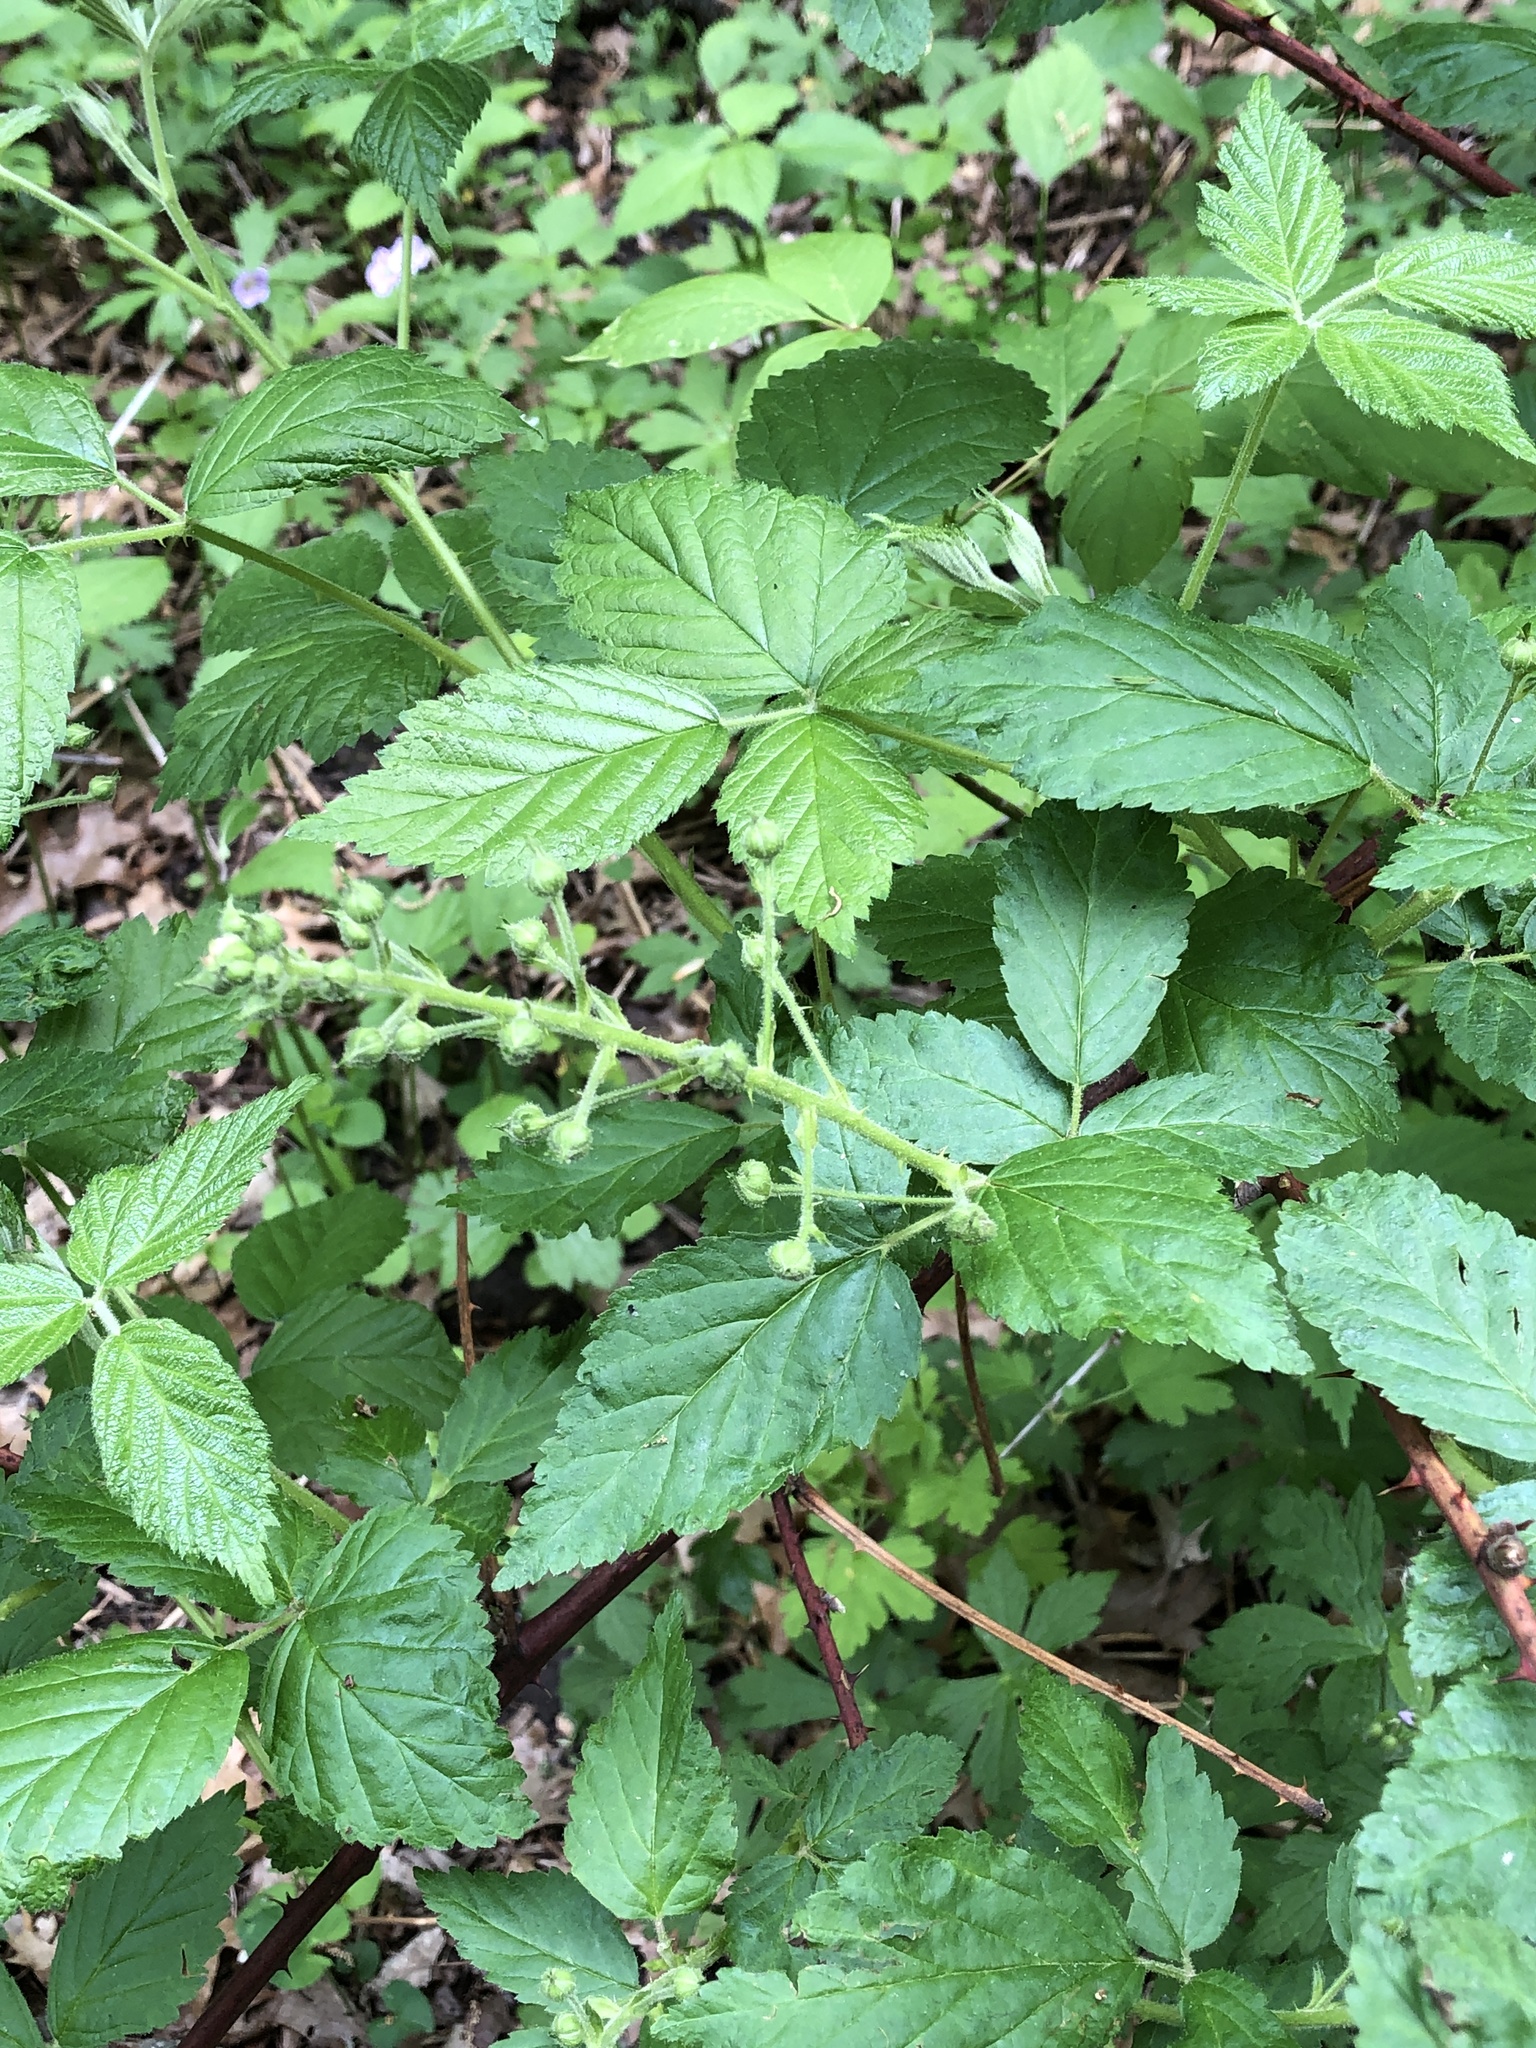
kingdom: Plantae
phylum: Tracheophyta
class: Magnoliopsida
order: Rosales
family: Rosaceae
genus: Rubus
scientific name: Rubus allegheniensis
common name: Allegheny blackberry
